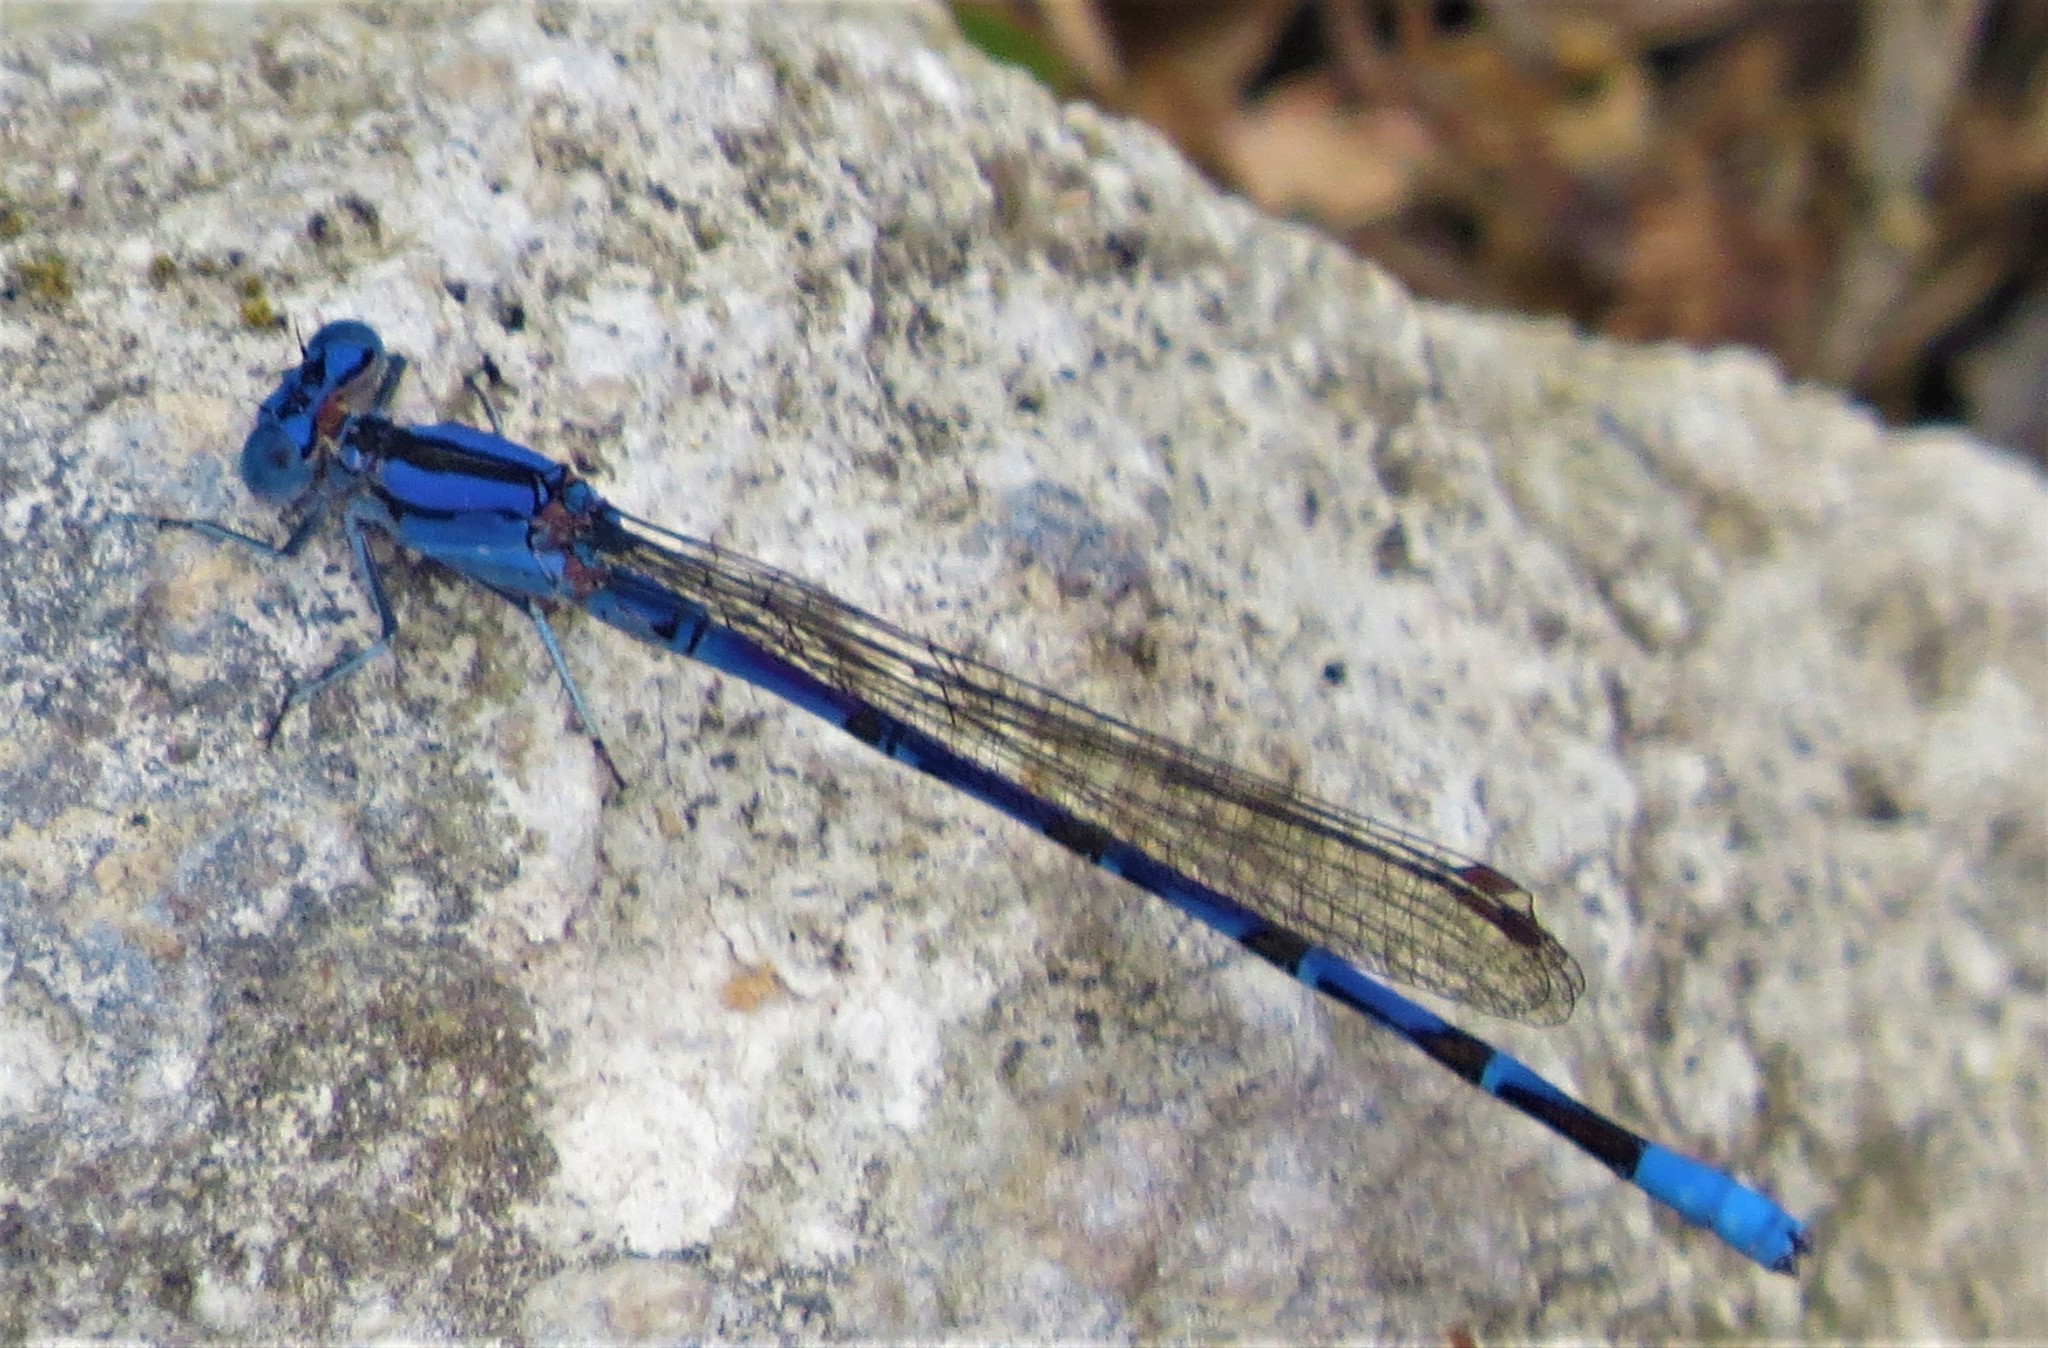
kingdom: Animalia
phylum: Arthropoda
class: Insecta
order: Odonata
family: Coenagrionidae
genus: Argia
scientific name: Argia funebris
